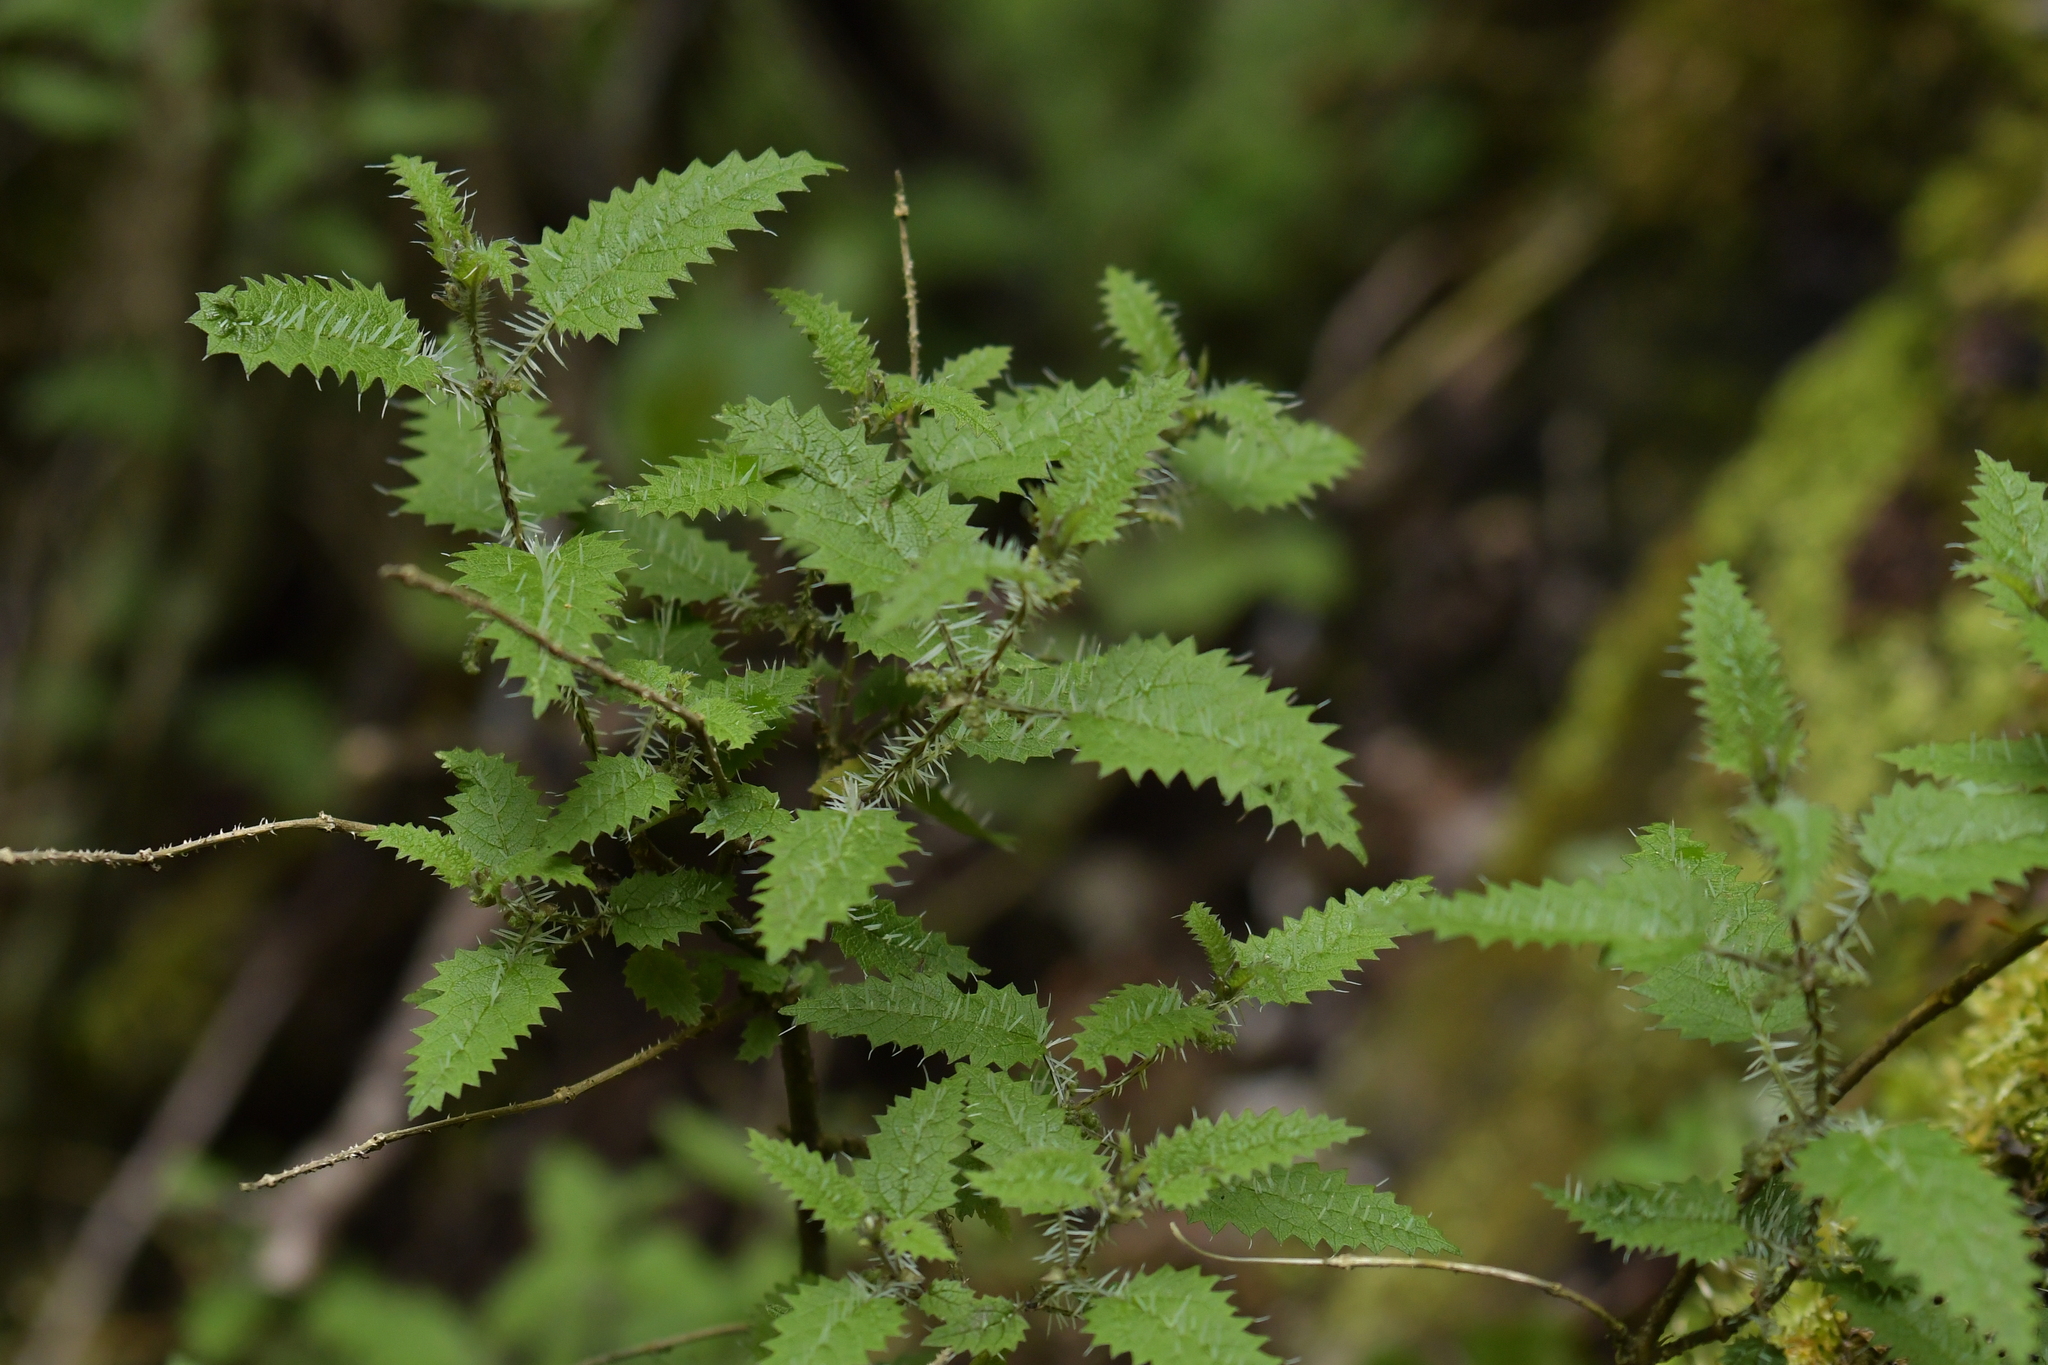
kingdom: Plantae
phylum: Tracheophyta
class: Magnoliopsida
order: Rosales
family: Urticaceae
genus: Urtica
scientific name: Urtica ferox
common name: Tree nettle
